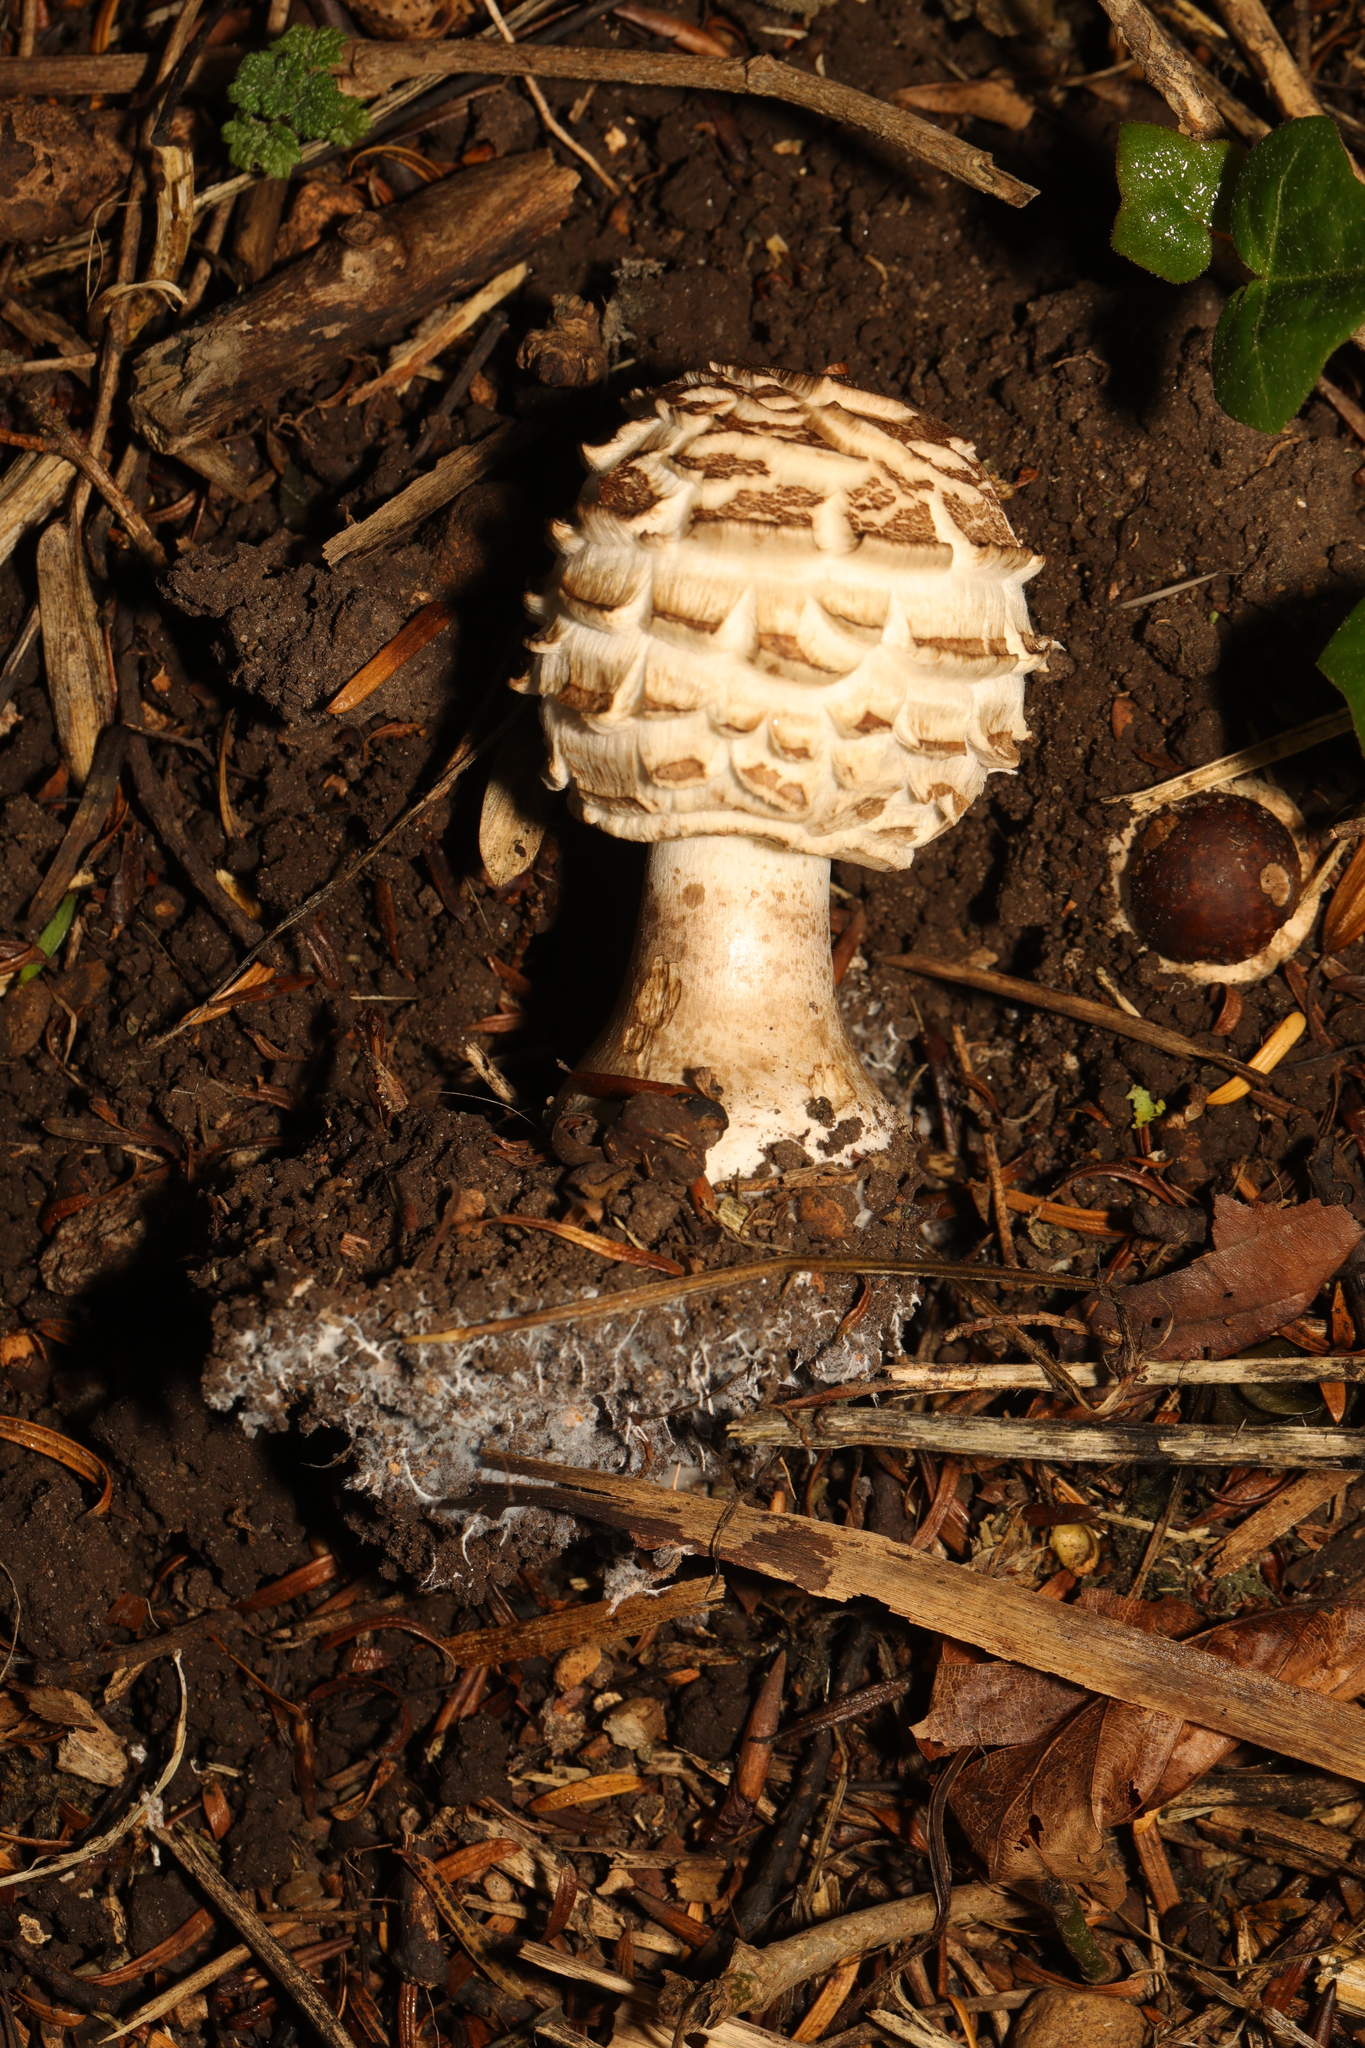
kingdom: Fungi
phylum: Basidiomycota
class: Agaricomycetes
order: Agaricales
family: Agaricaceae
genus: Chlorophyllum
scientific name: Chlorophyllum rhacodes
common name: Shaggy parasol
